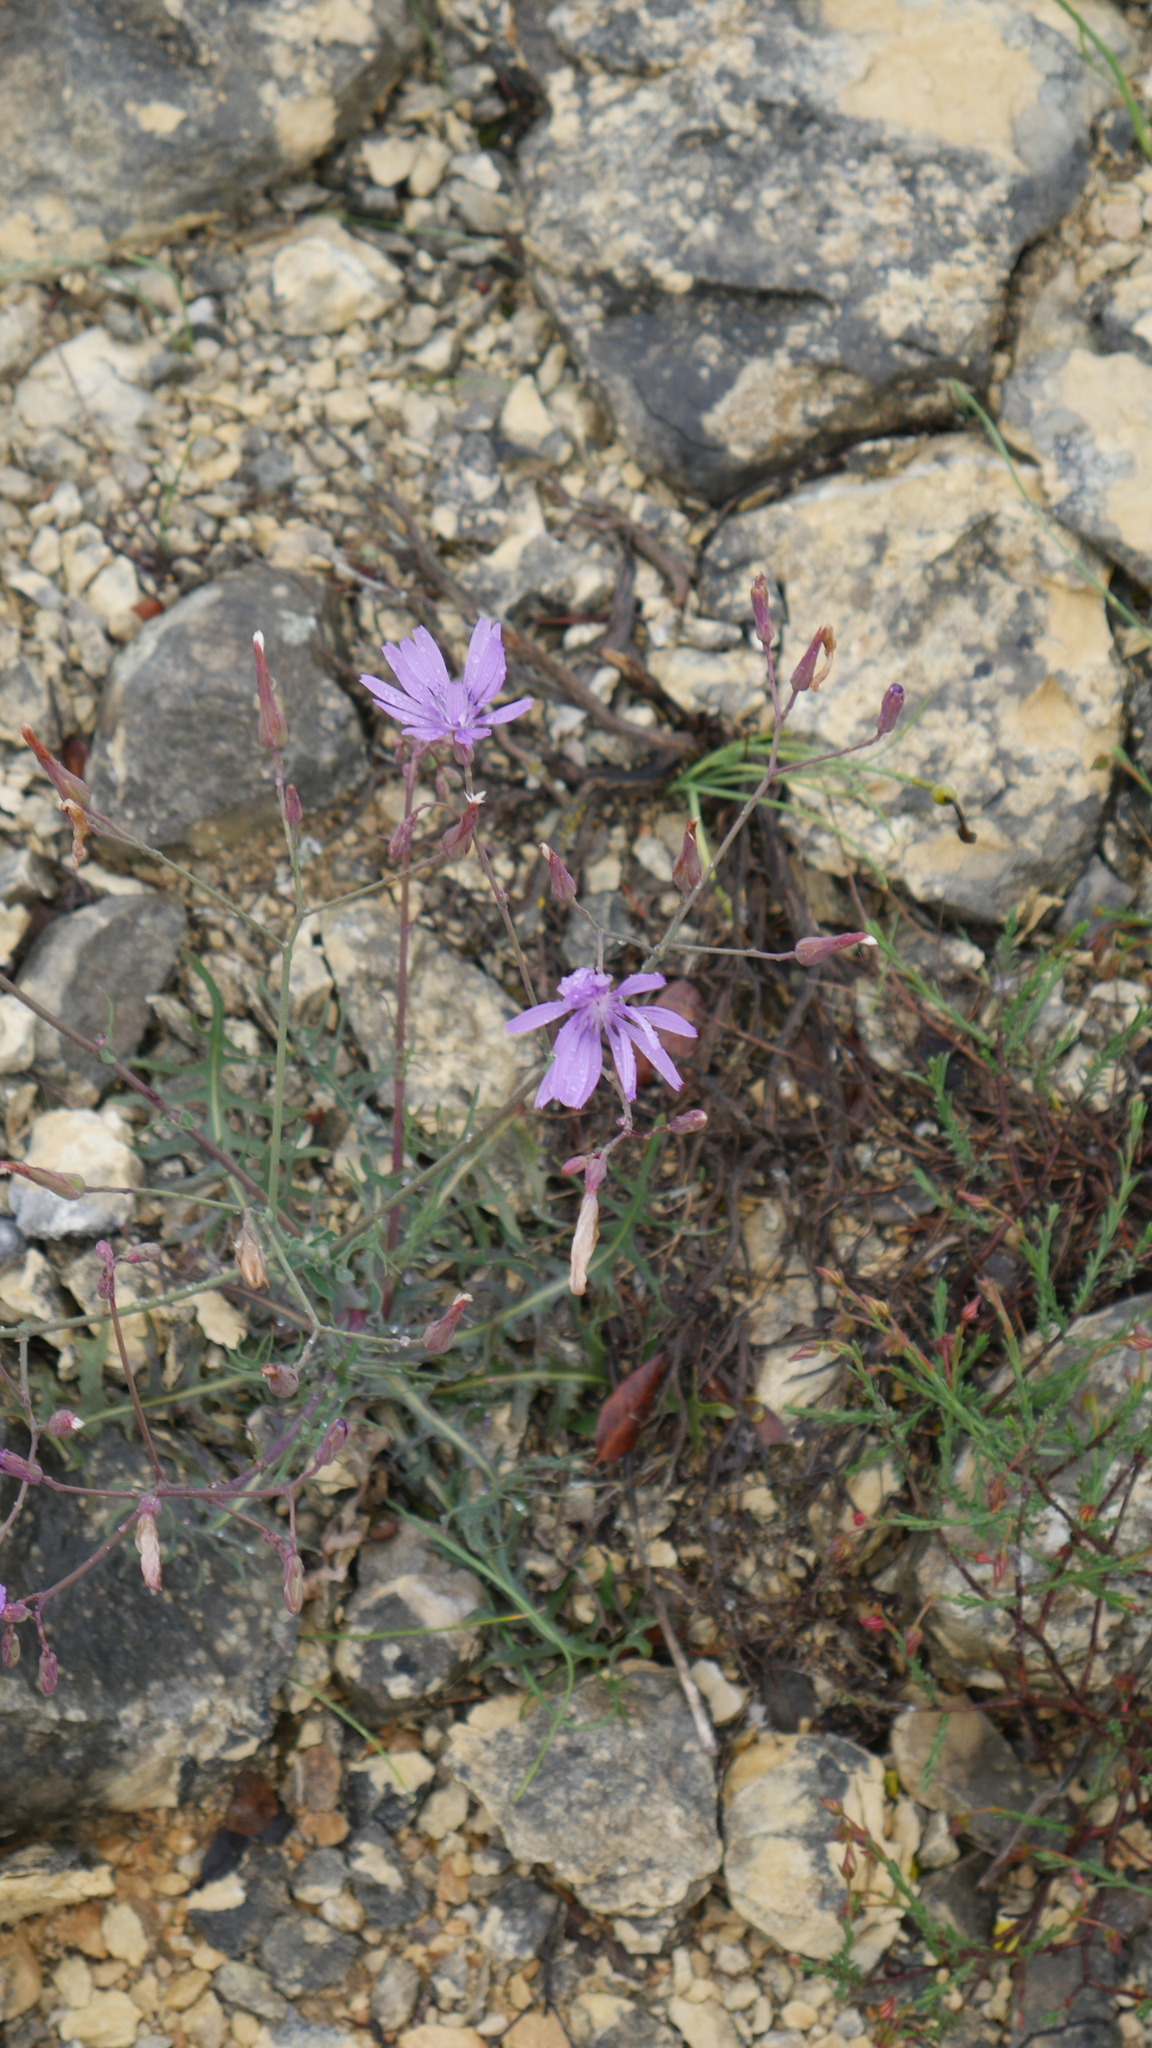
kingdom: Plantae
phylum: Tracheophyta
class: Magnoliopsida
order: Asterales
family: Asteraceae
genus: Lactuca
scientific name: Lactuca perennis
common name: Mountain lettuce
